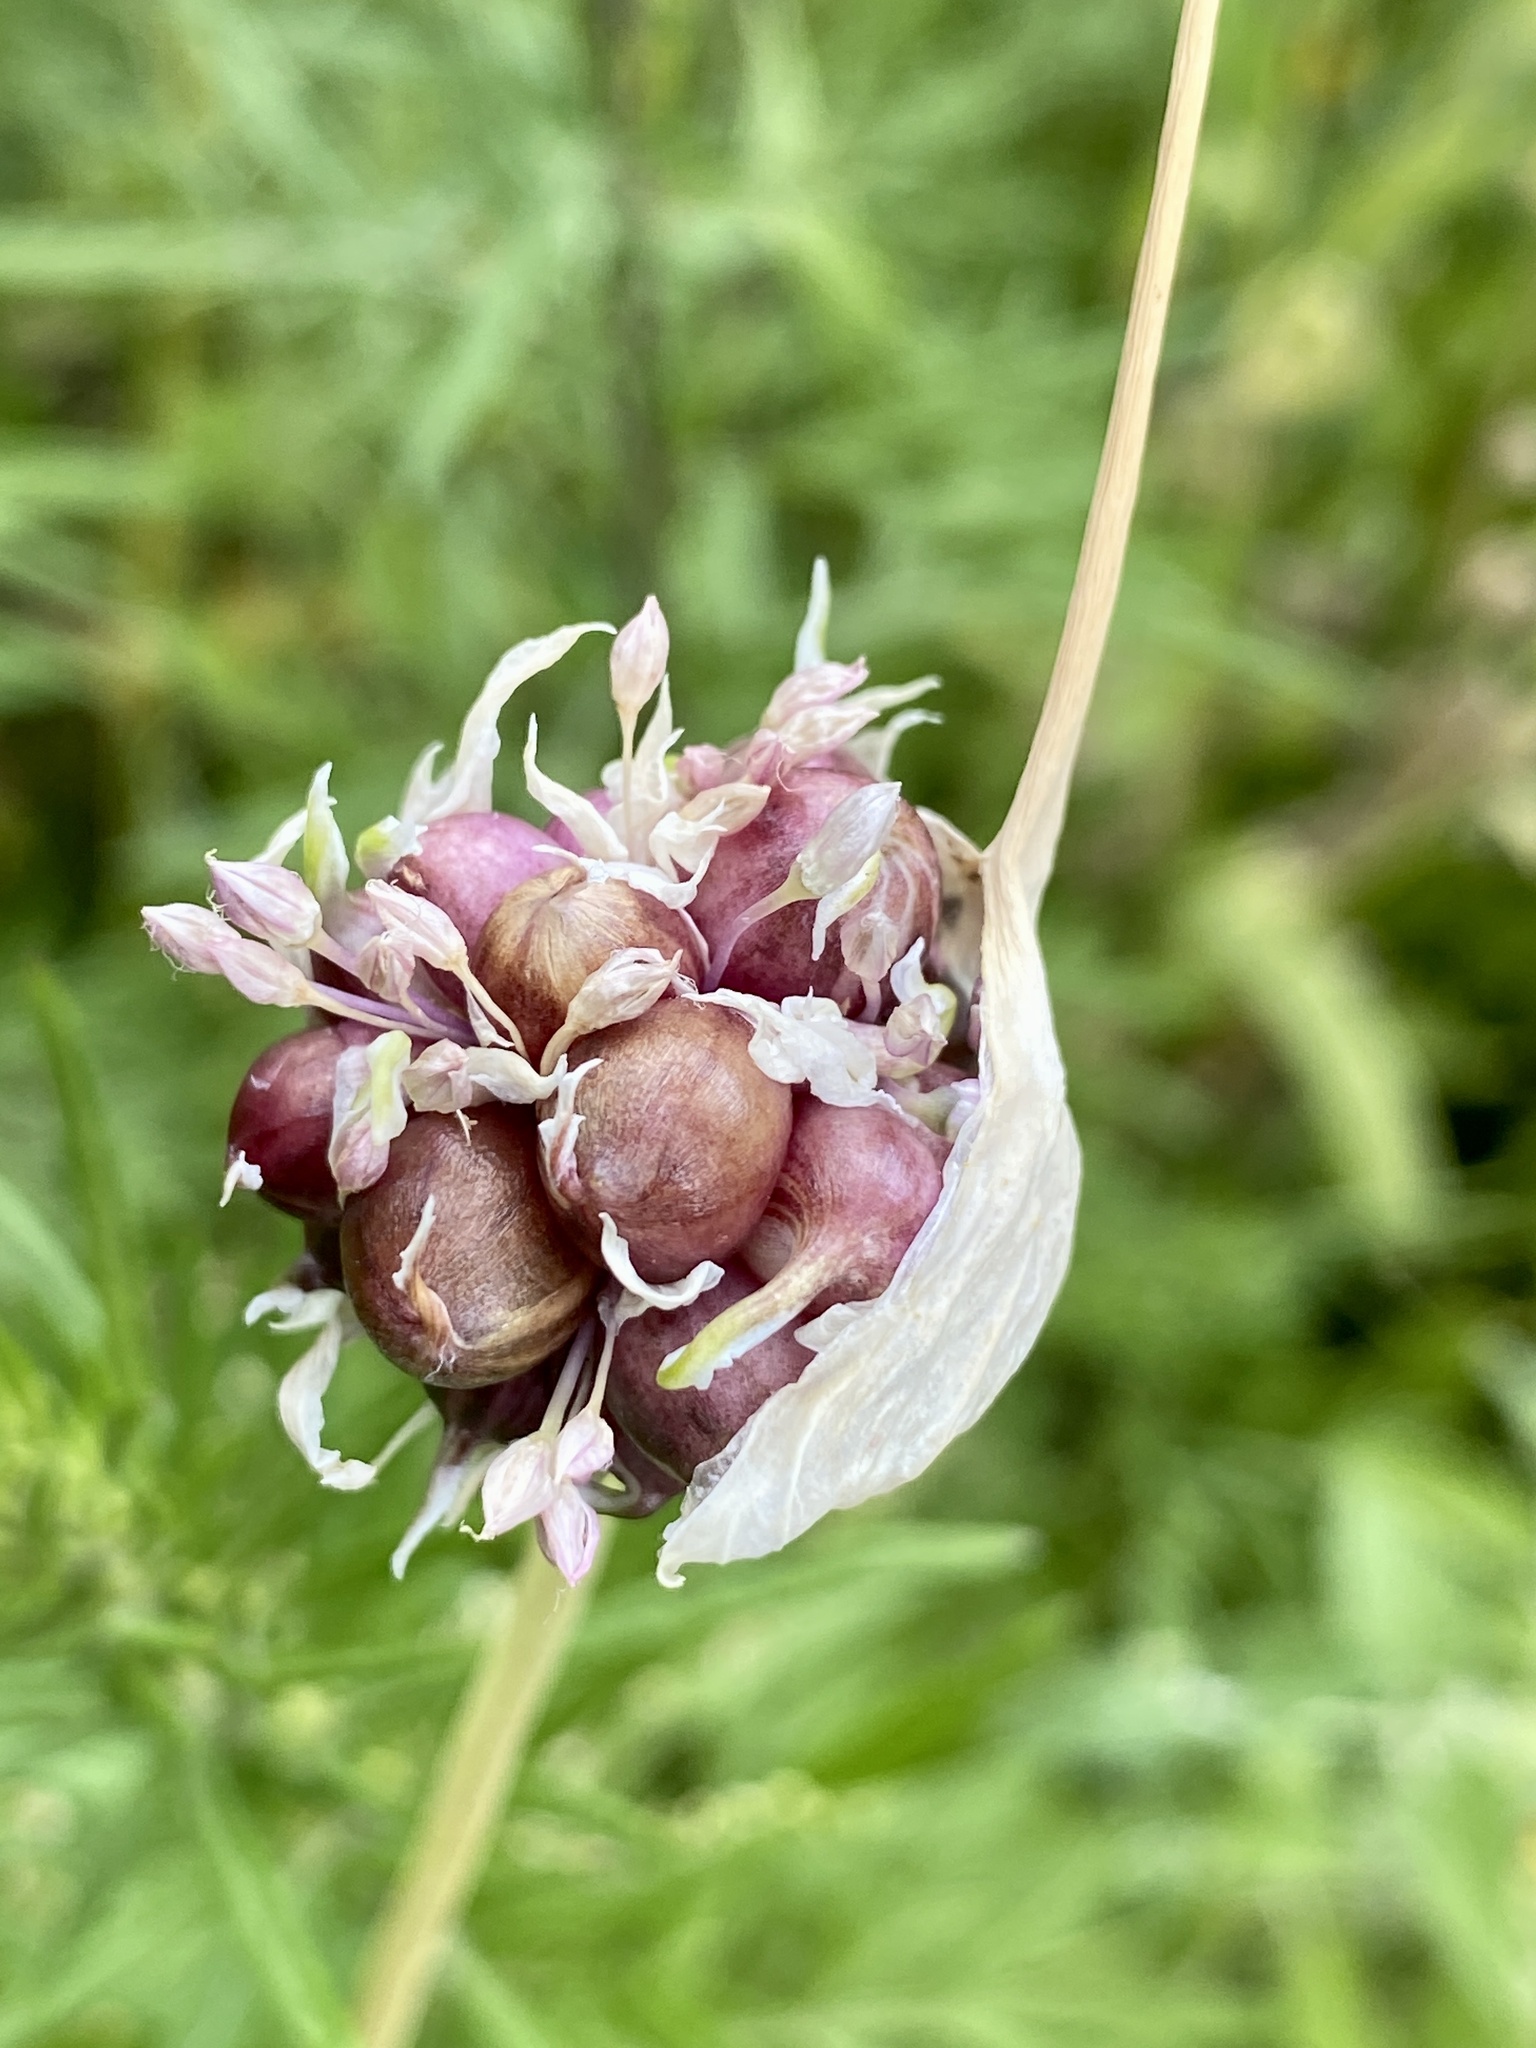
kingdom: Plantae
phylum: Tracheophyta
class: Liliopsida
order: Asparagales
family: Amaryllidaceae
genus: Allium
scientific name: Allium vineale
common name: Crow garlic
